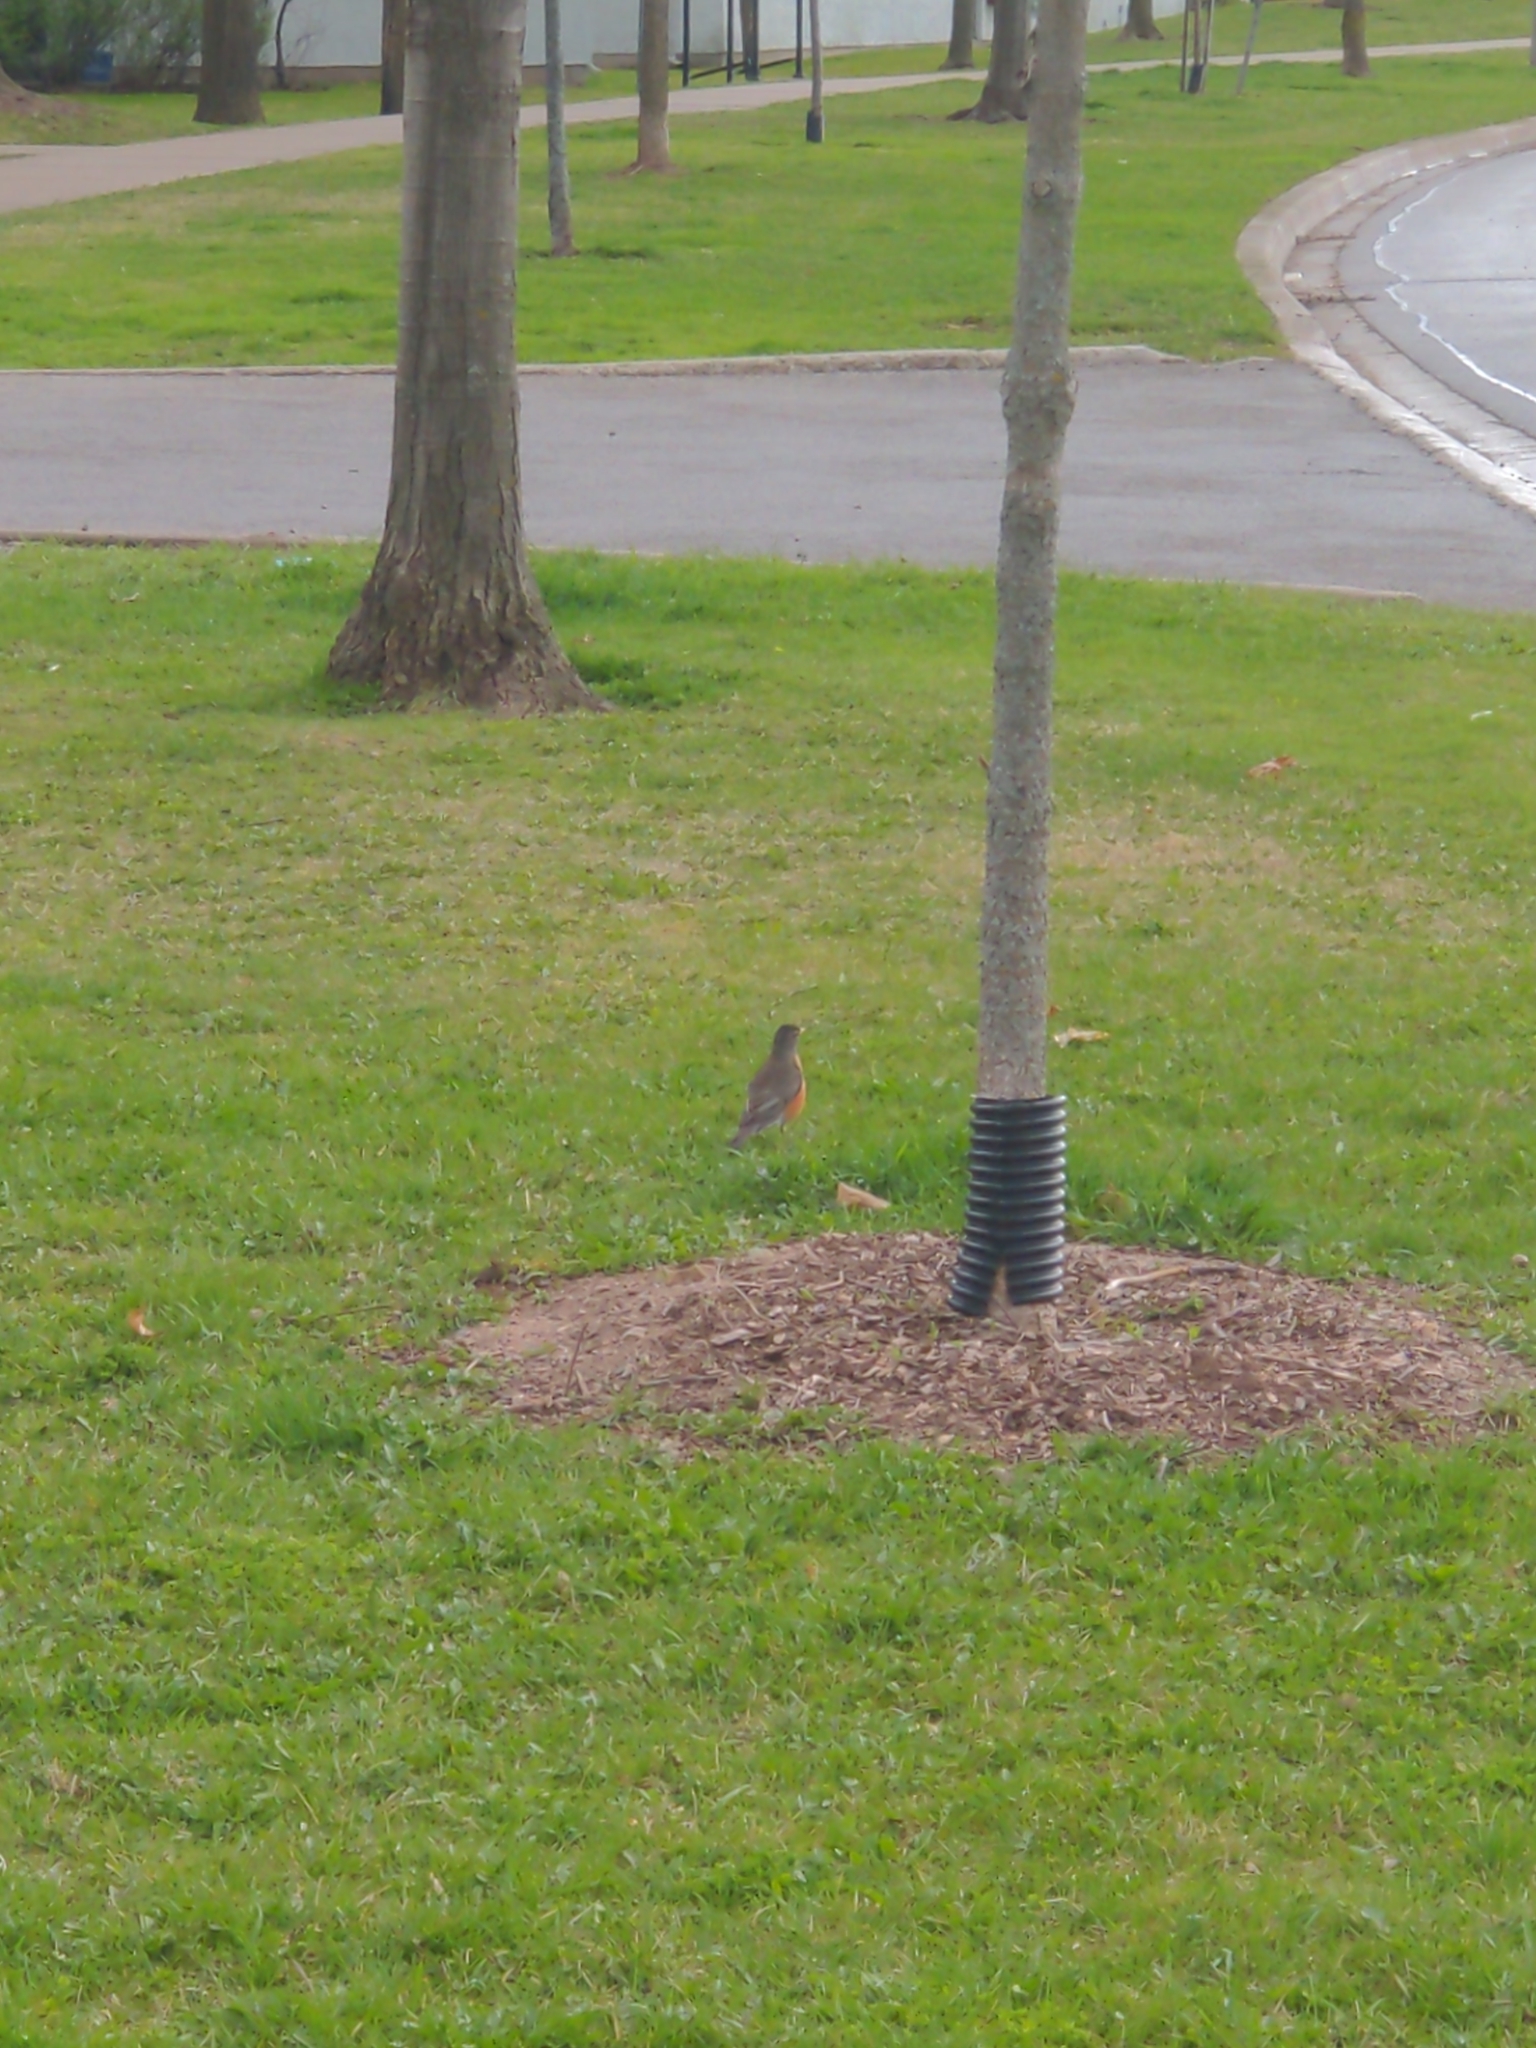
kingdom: Animalia
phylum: Chordata
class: Aves
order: Passeriformes
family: Turdidae
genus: Turdus
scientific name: Turdus migratorius
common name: American robin
